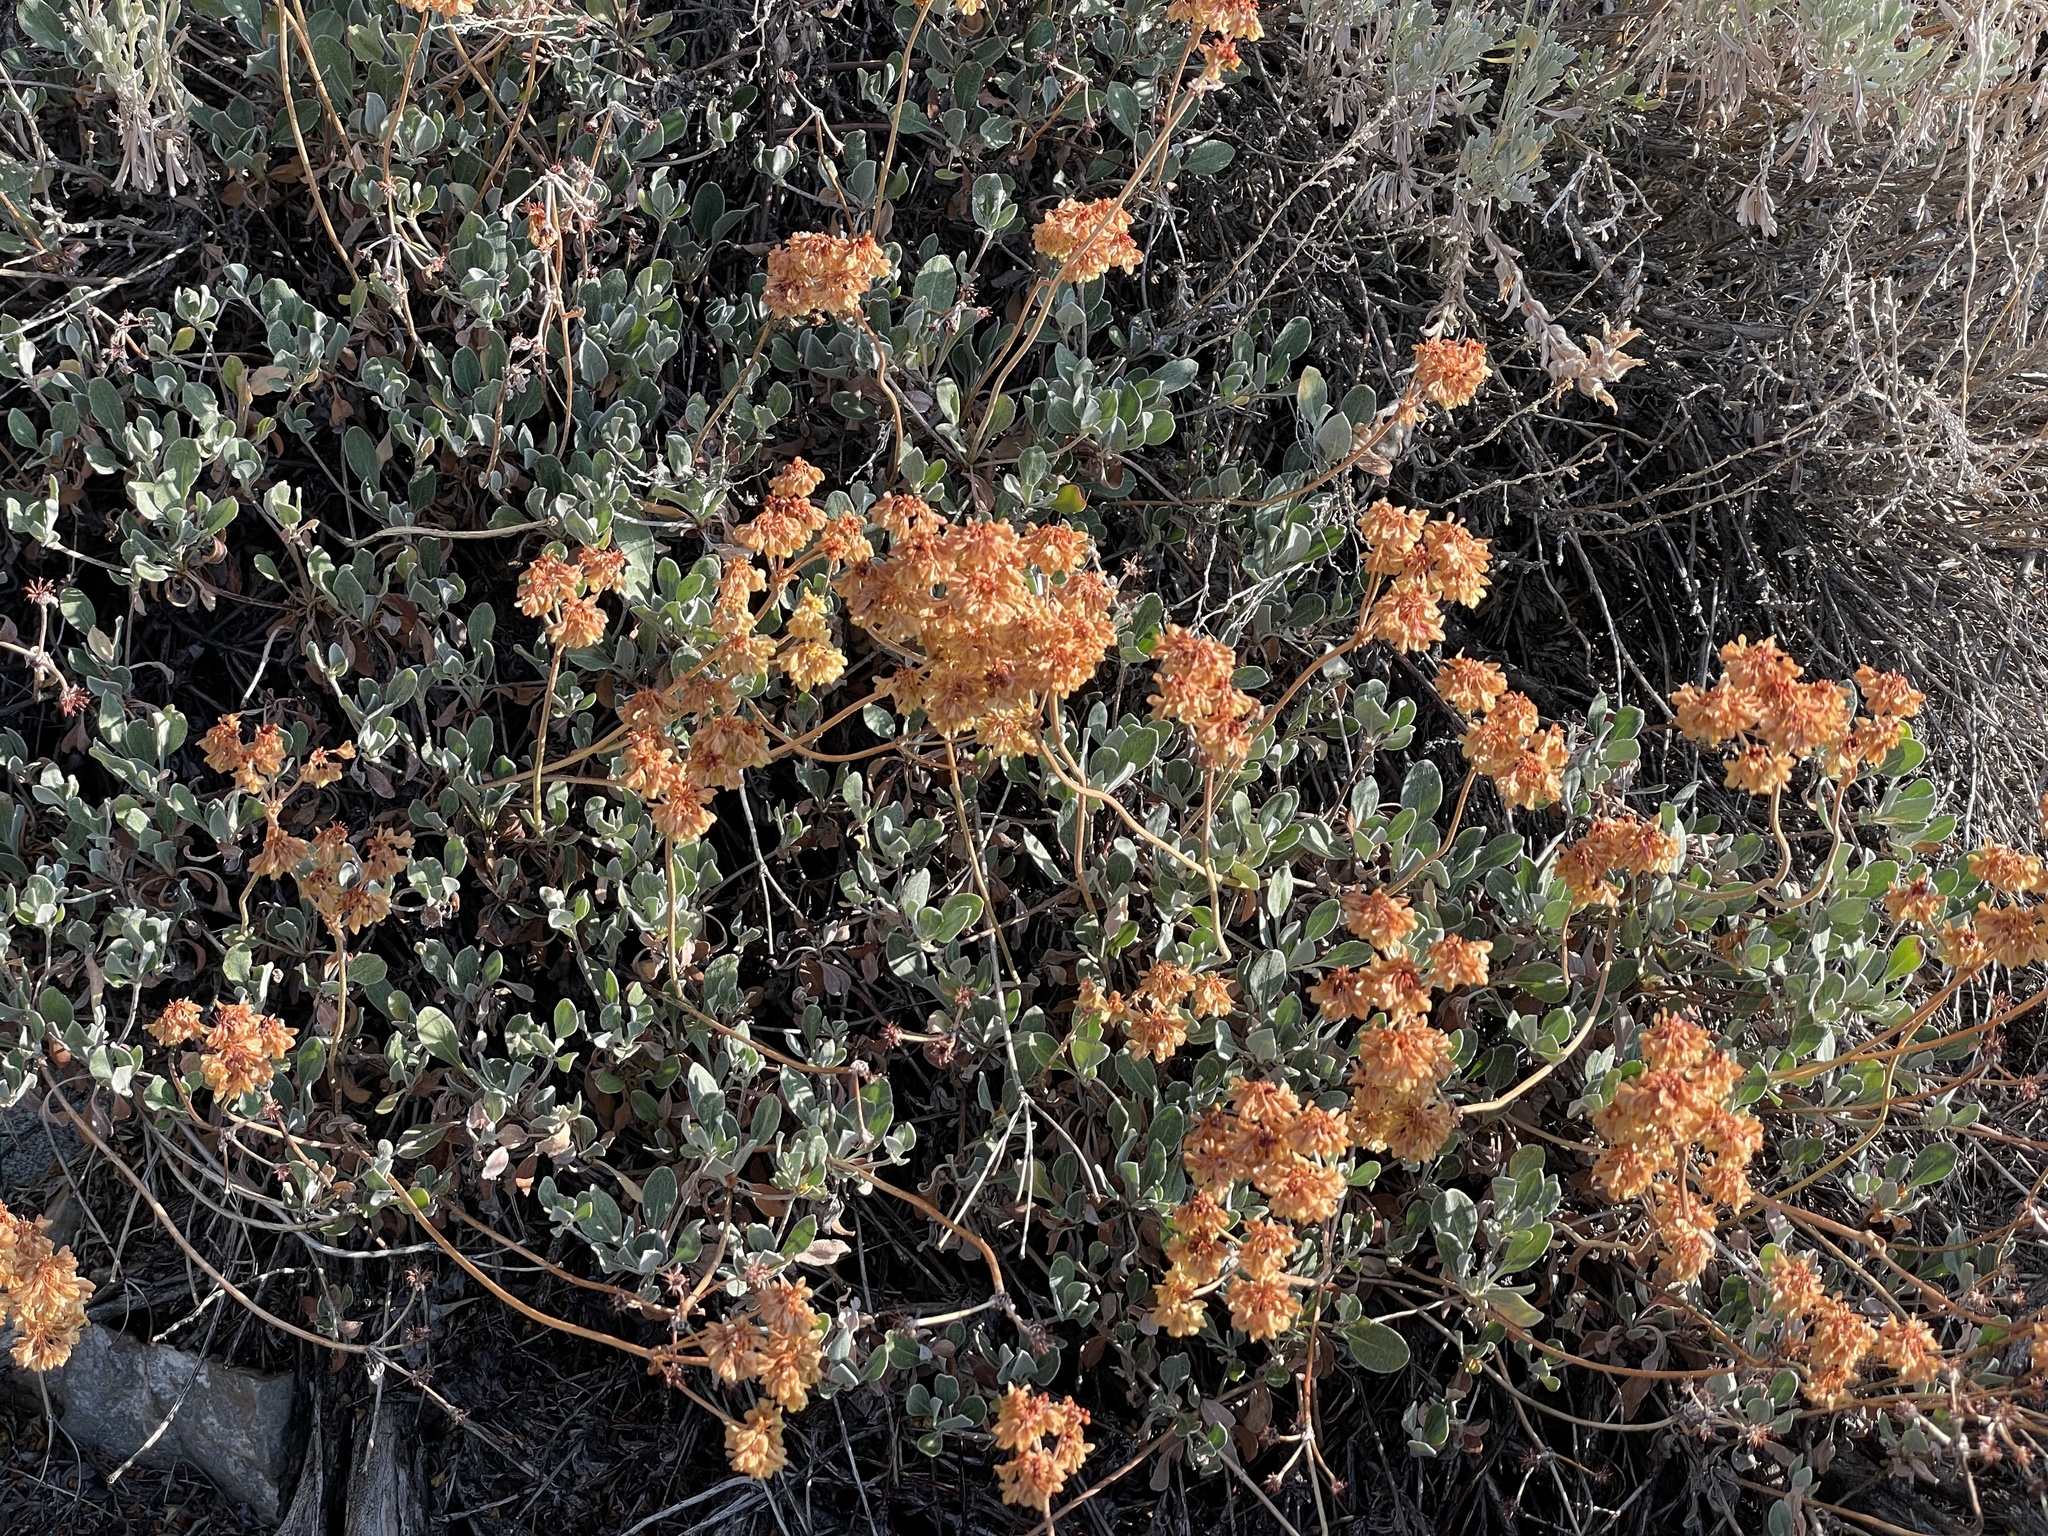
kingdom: Plantae
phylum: Tracheophyta
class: Magnoliopsida
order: Caryophyllales
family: Polygonaceae
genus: Eriogonum
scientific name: Eriogonum umbellatum
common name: Sulfur-buckwheat
